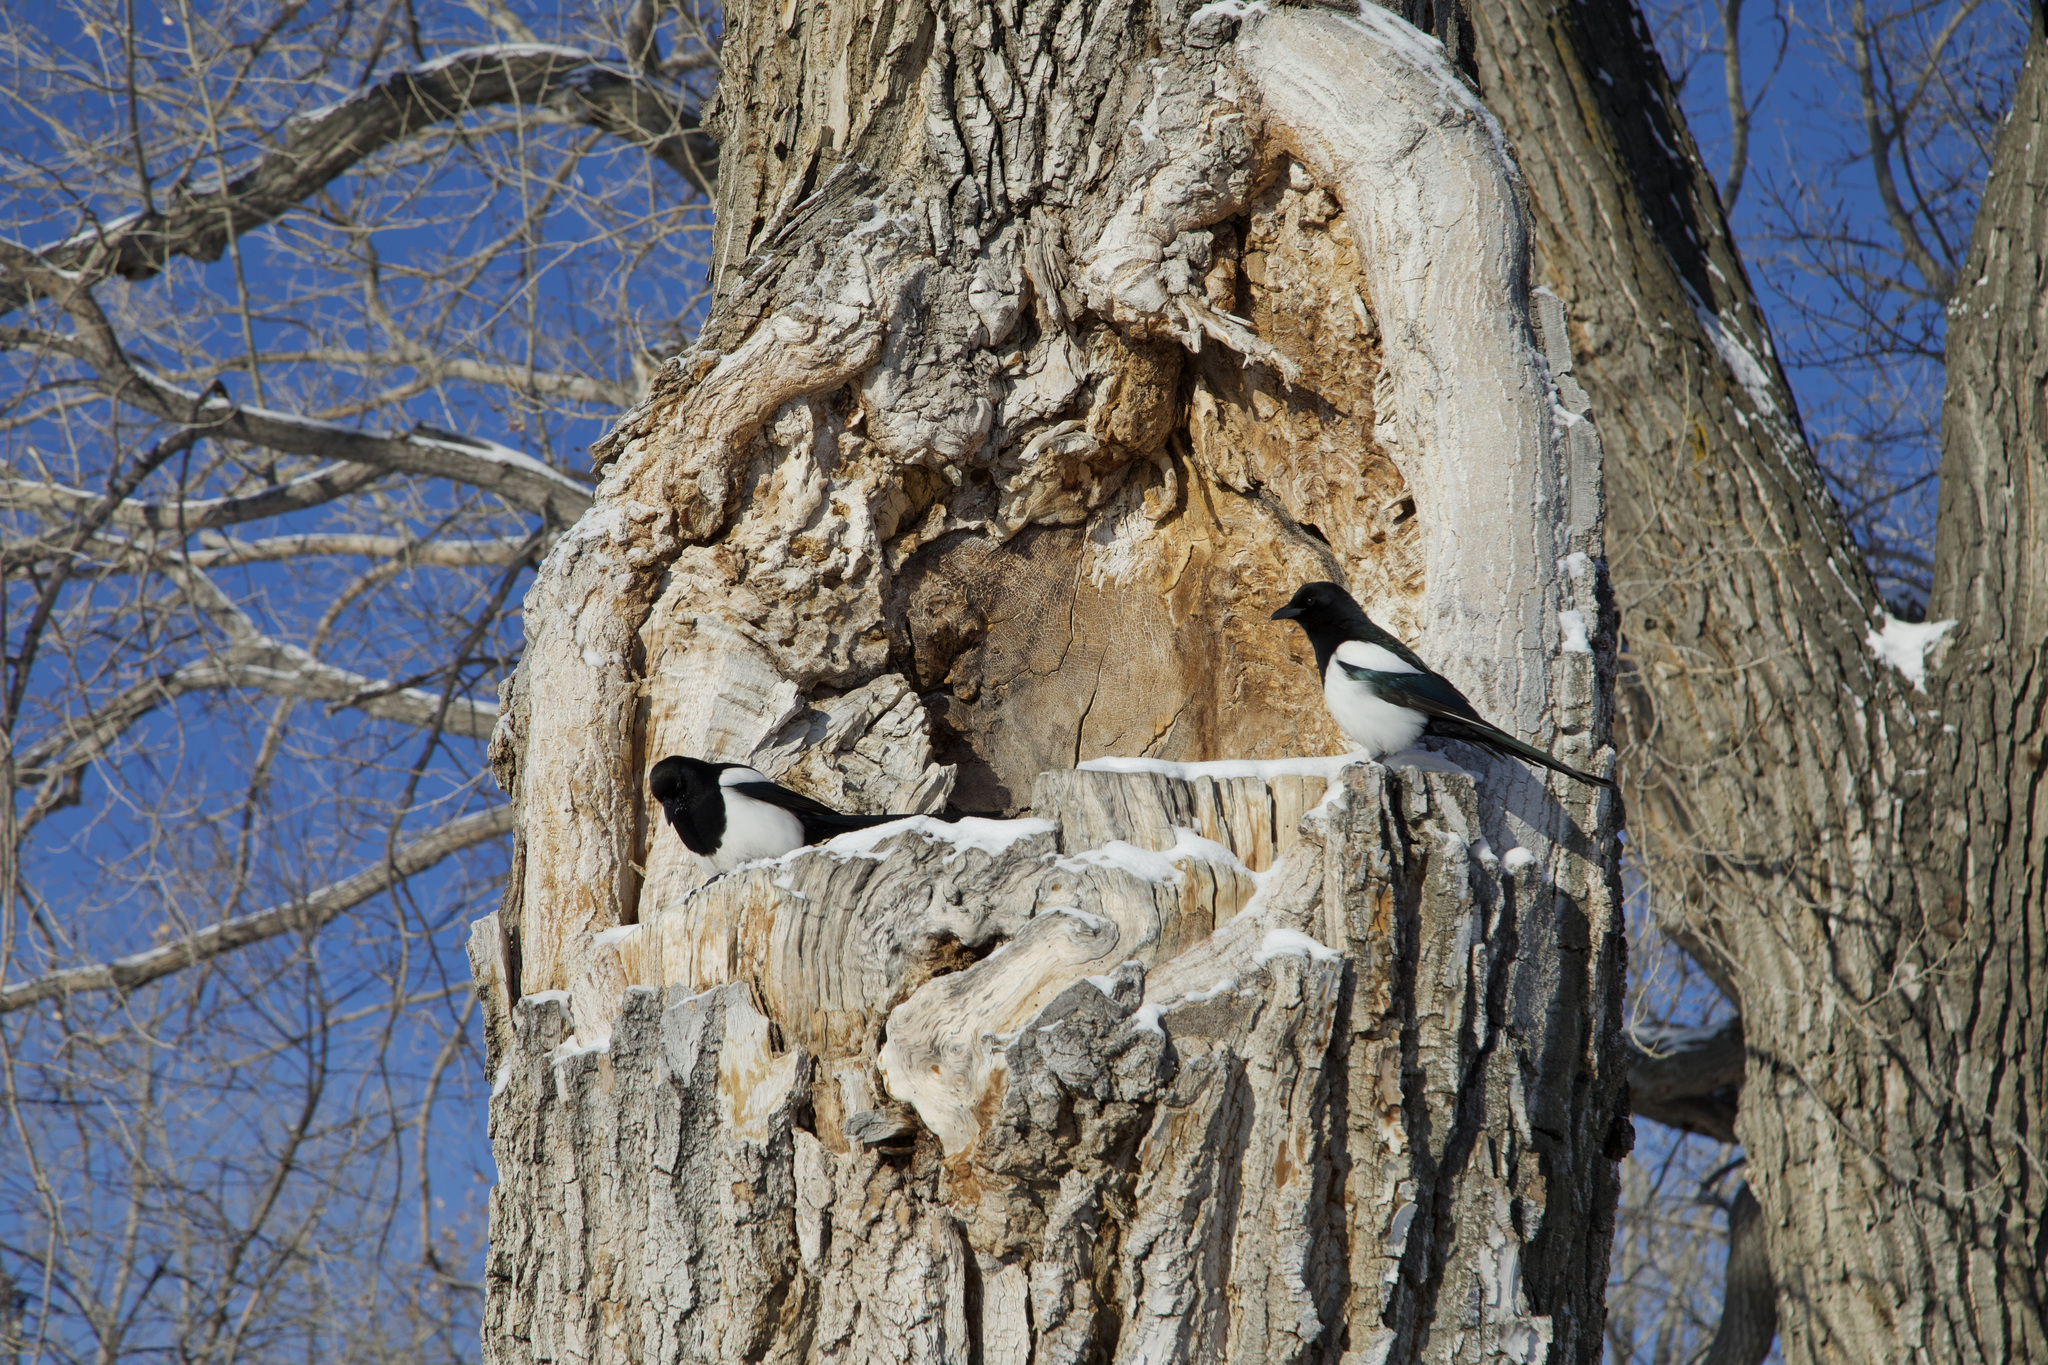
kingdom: Animalia
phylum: Chordata
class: Aves
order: Passeriformes
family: Corvidae
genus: Pica
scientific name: Pica hudsonia
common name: Black-billed magpie
